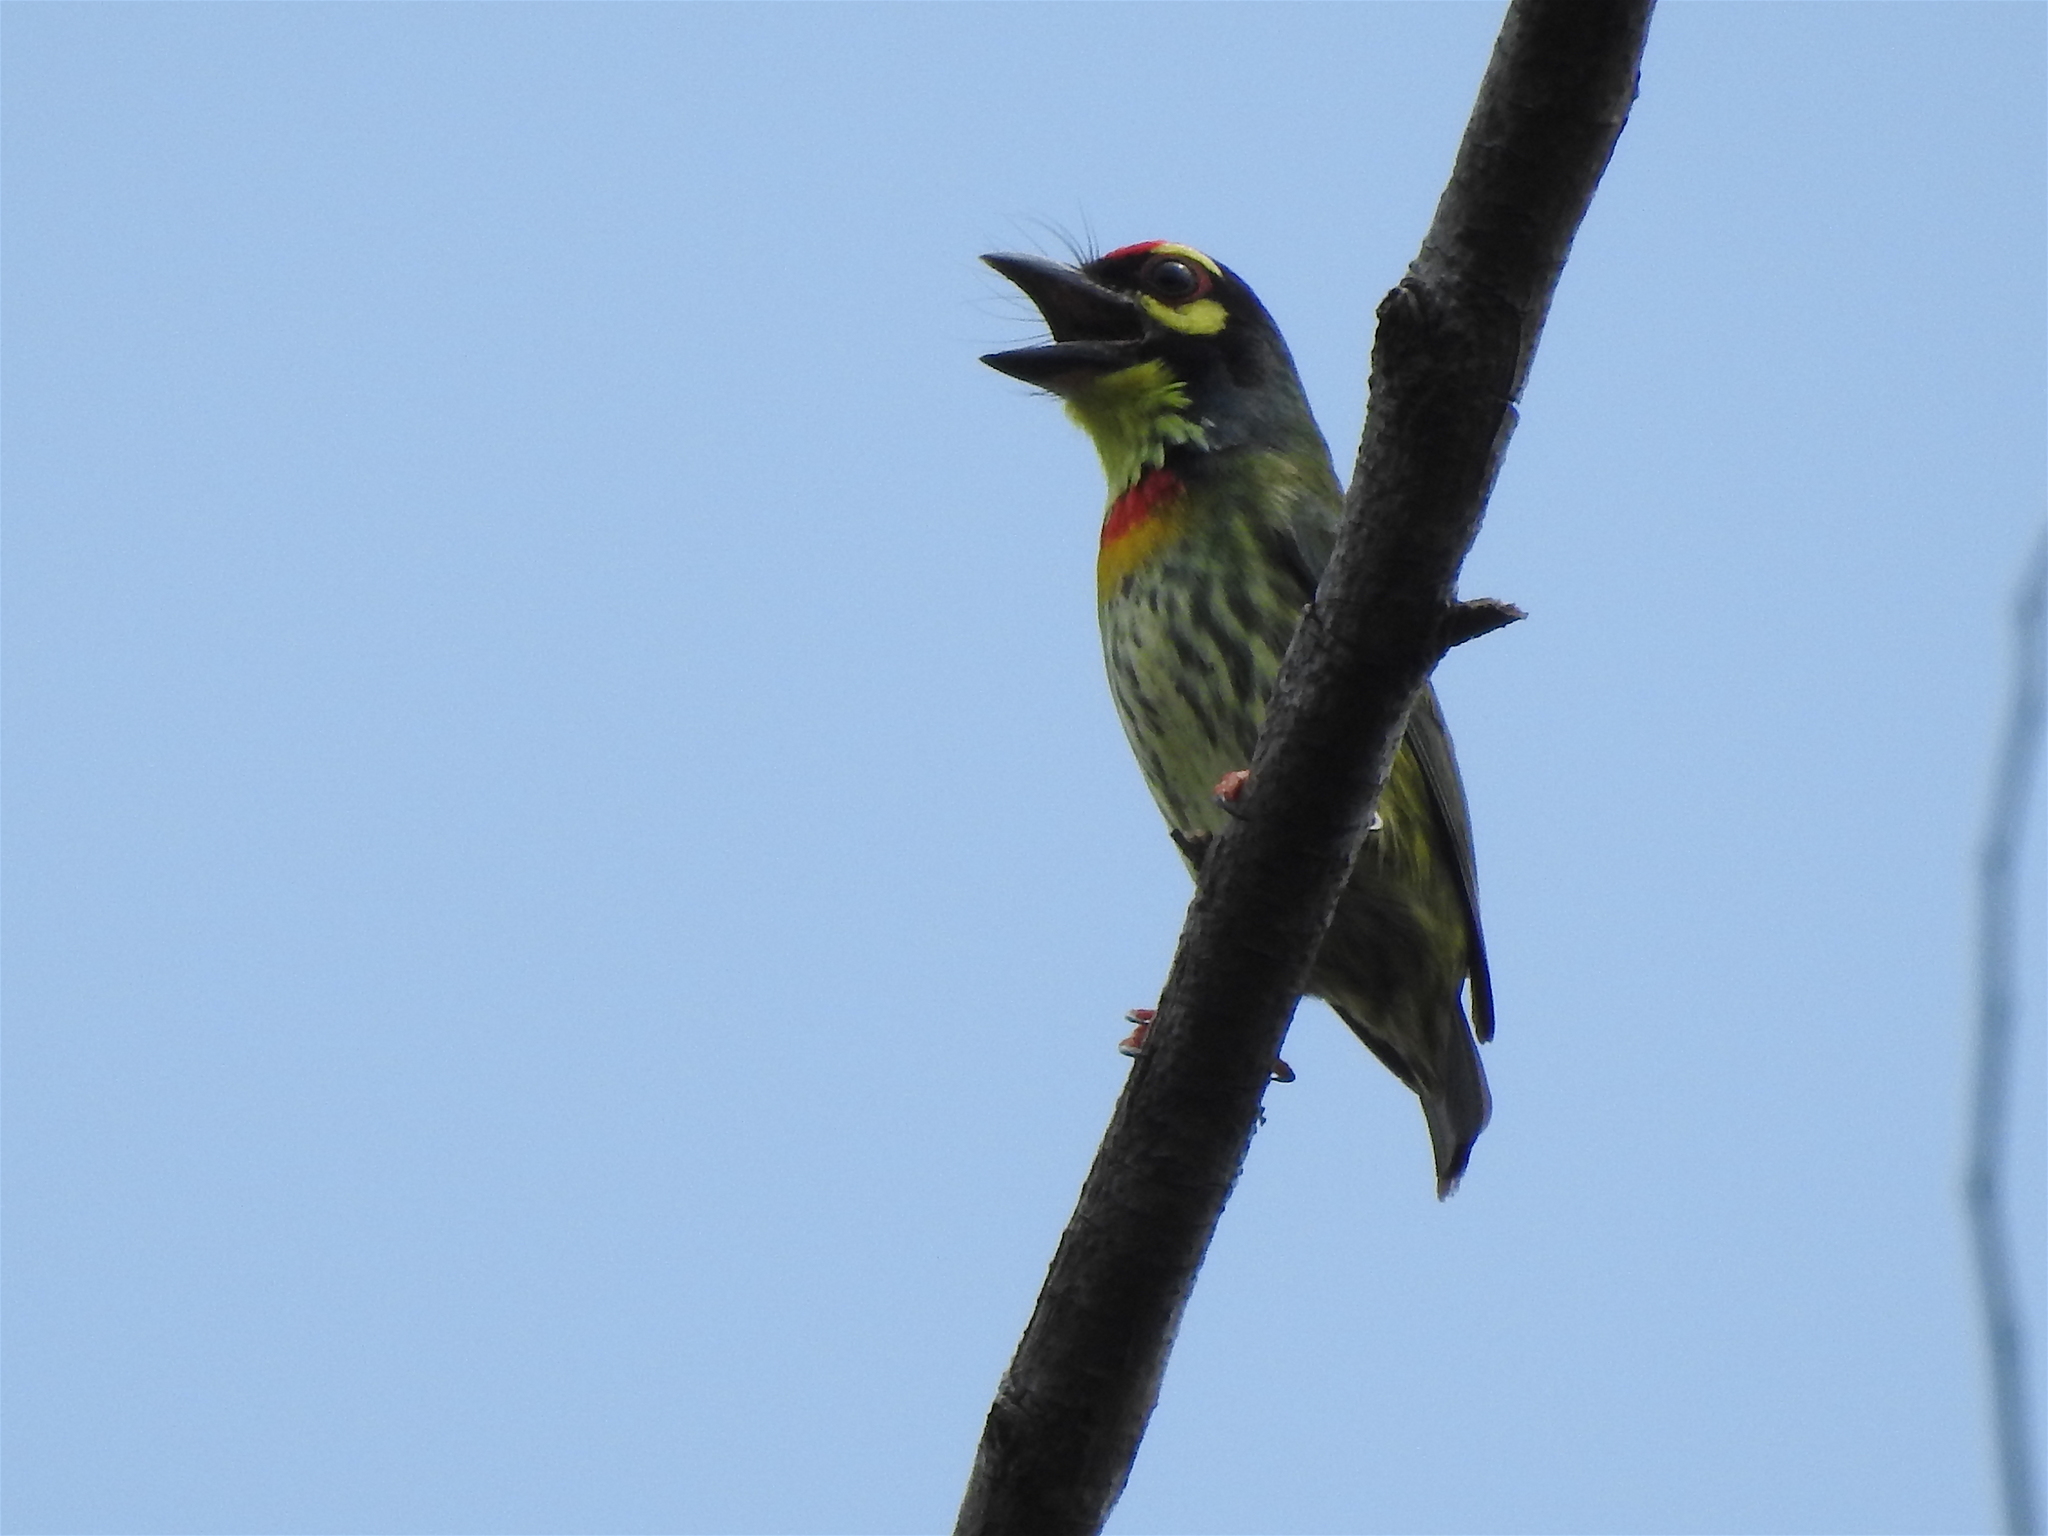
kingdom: Animalia
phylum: Chordata
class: Aves
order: Piciformes
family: Megalaimidae
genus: Psilopogon
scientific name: Psilopogon haemacephalus
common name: Coppersmith barbet
